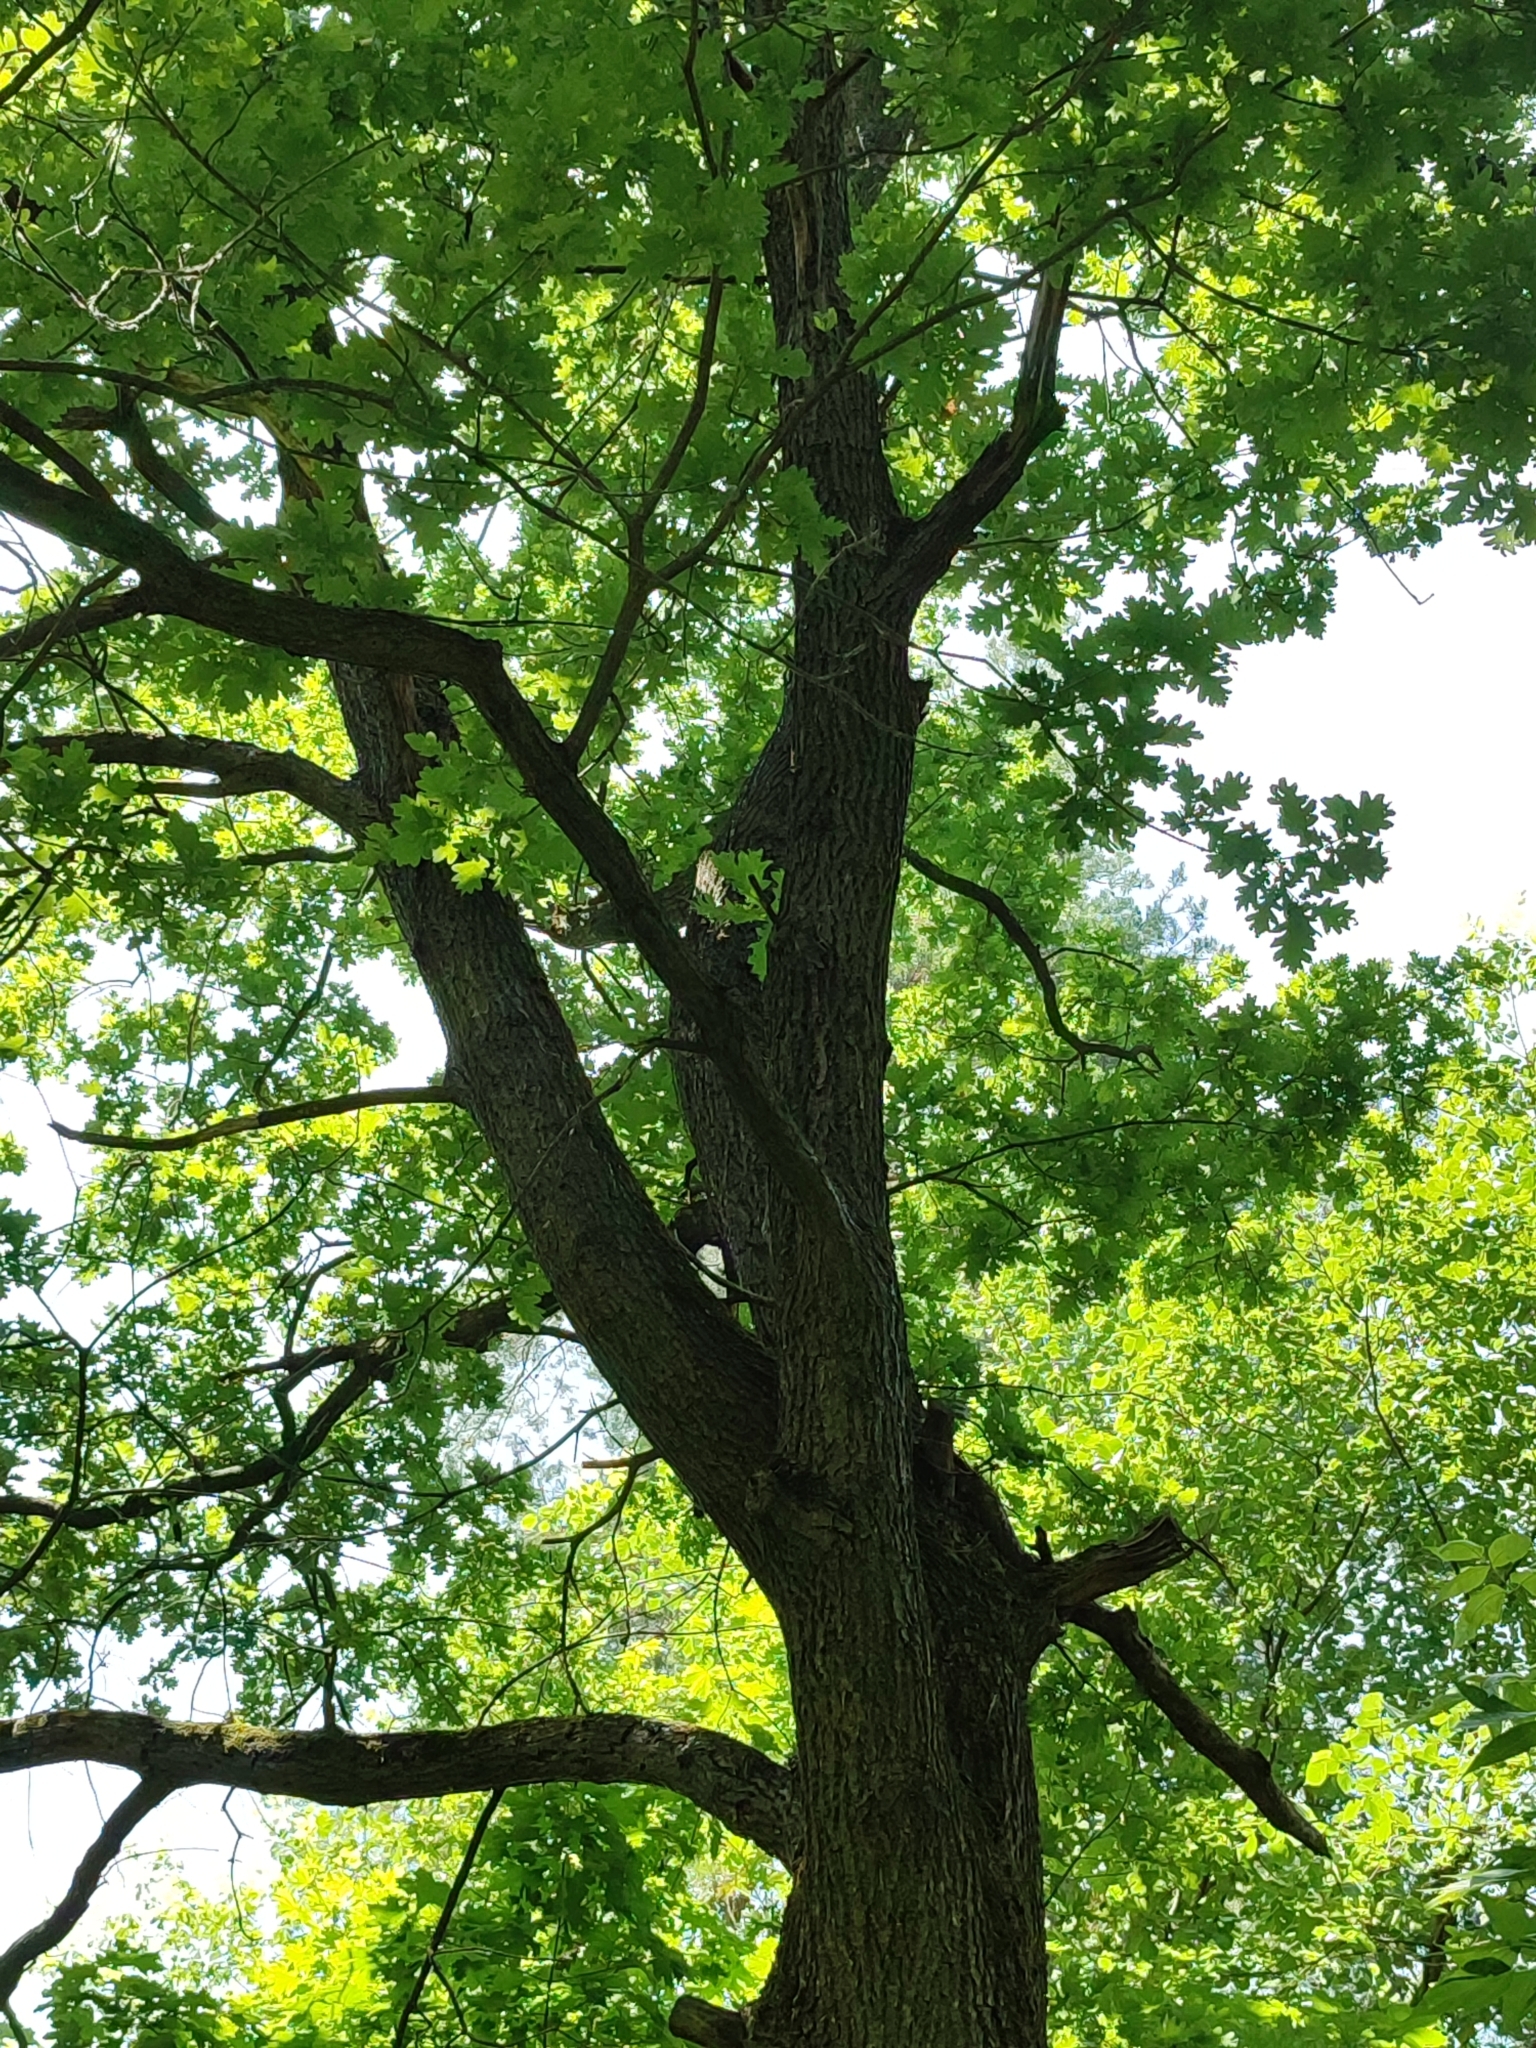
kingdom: Plantae
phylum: Tracheophyta
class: Magnoliopsida
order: Fagales
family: Fagaceae
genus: Quercus
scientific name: Quercus robur
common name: Pedunculate oak
